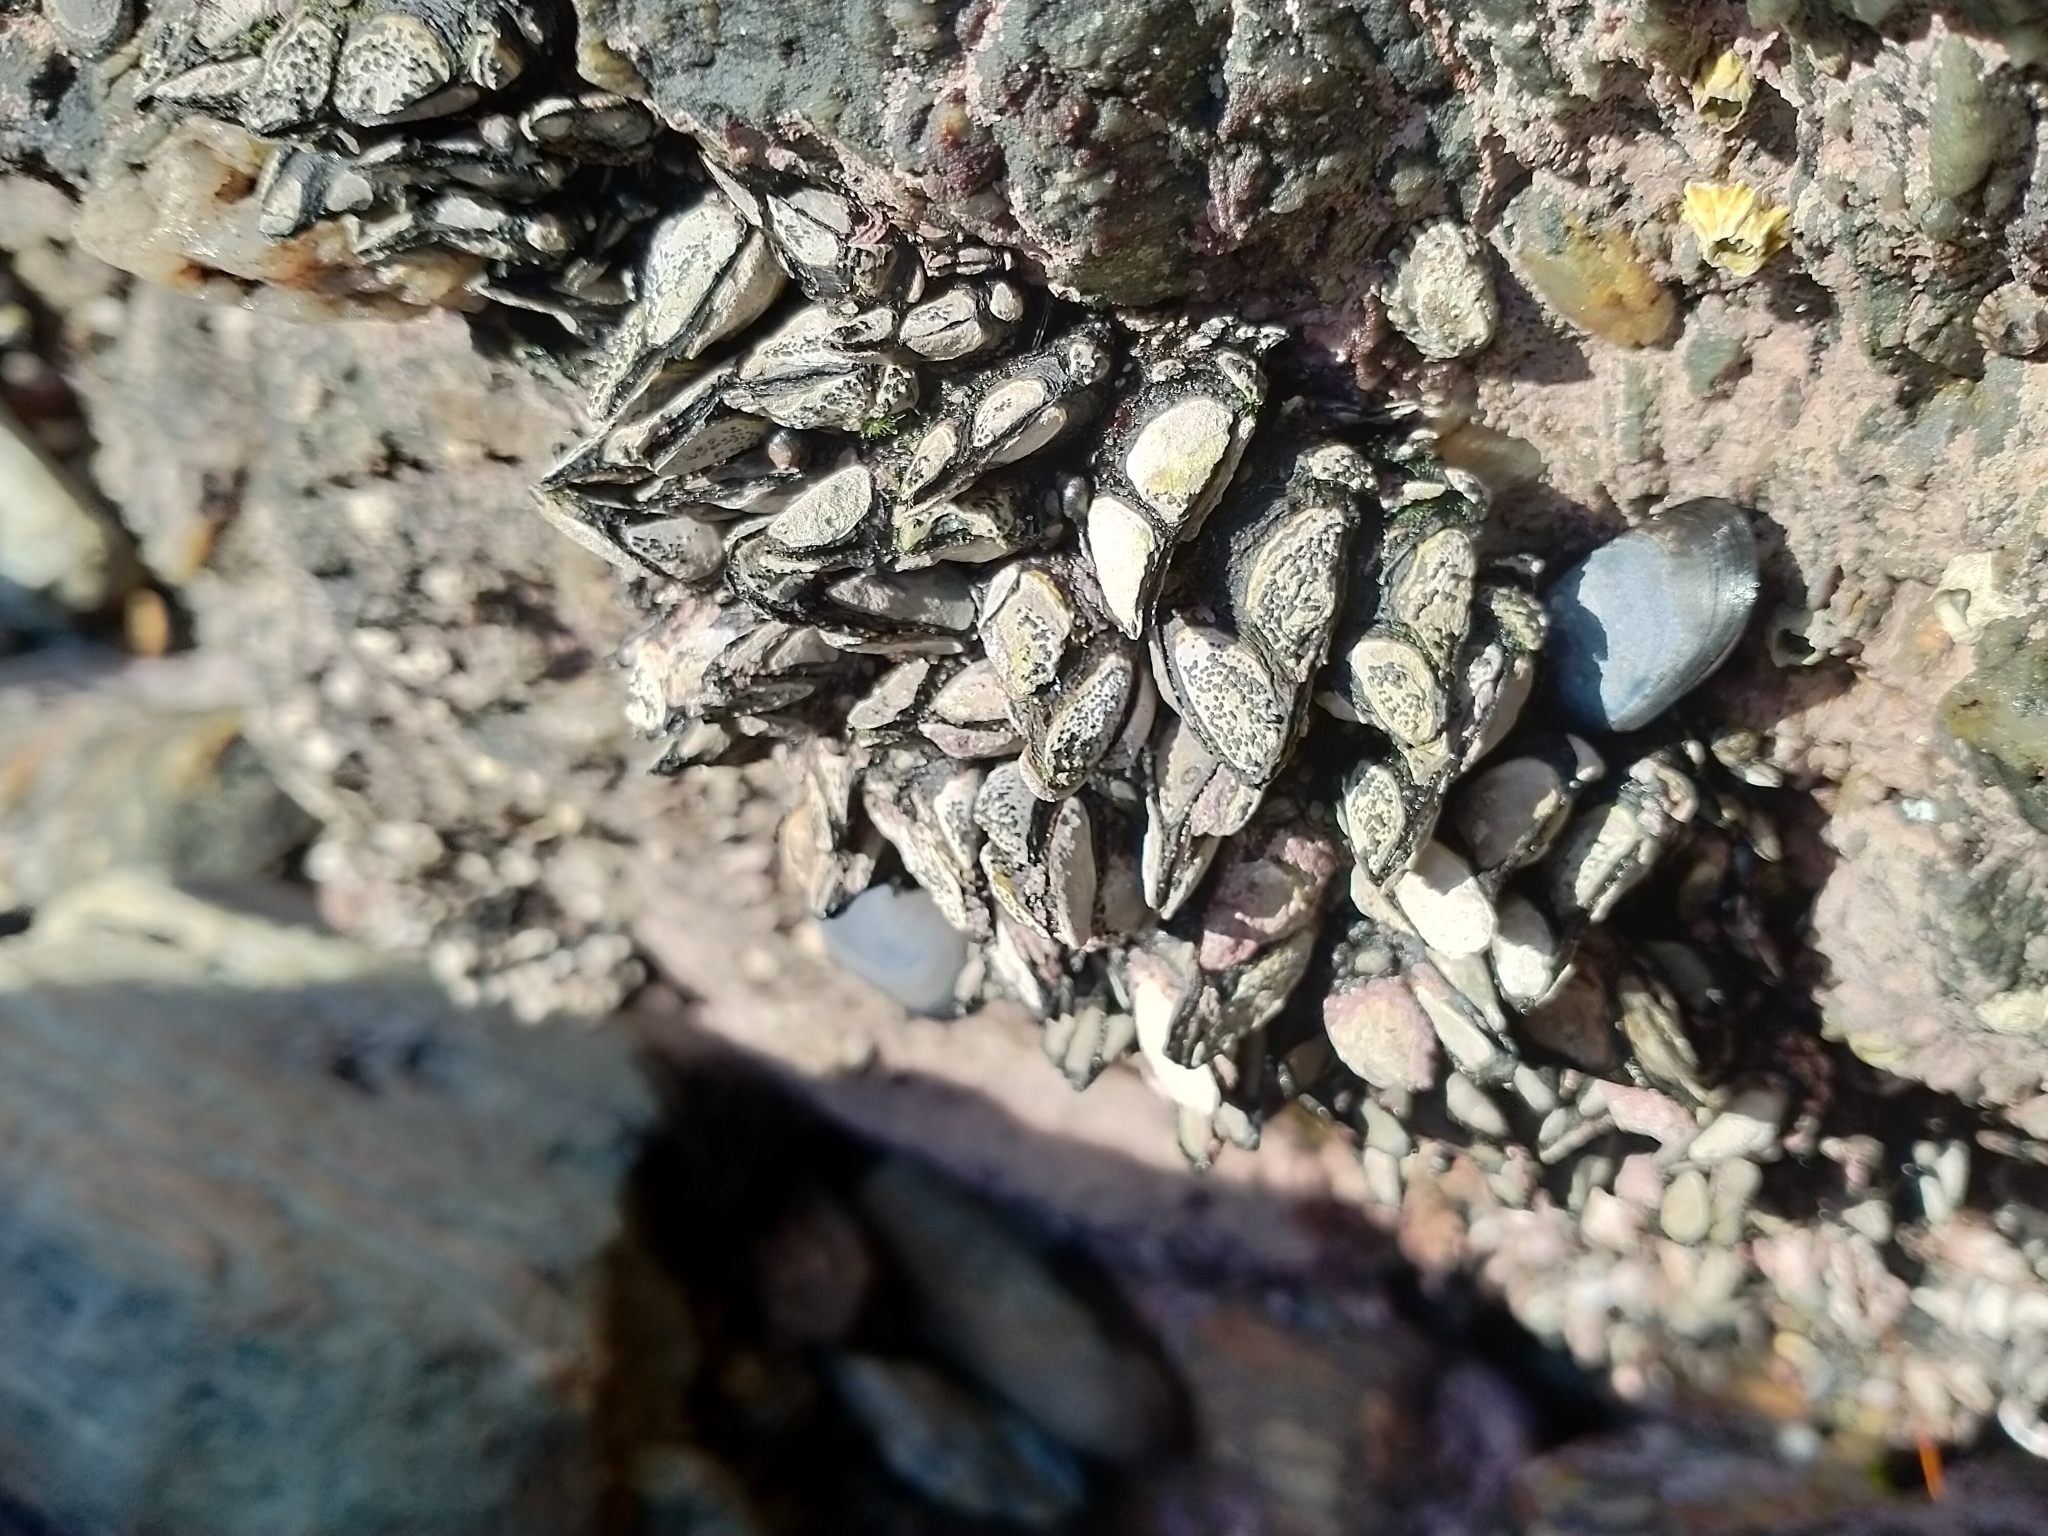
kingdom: Animalia
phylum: Arthropoda
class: Maxillopoda
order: Pedunculata
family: Calanticidae
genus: Calantica
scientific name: Calantica spinosa
